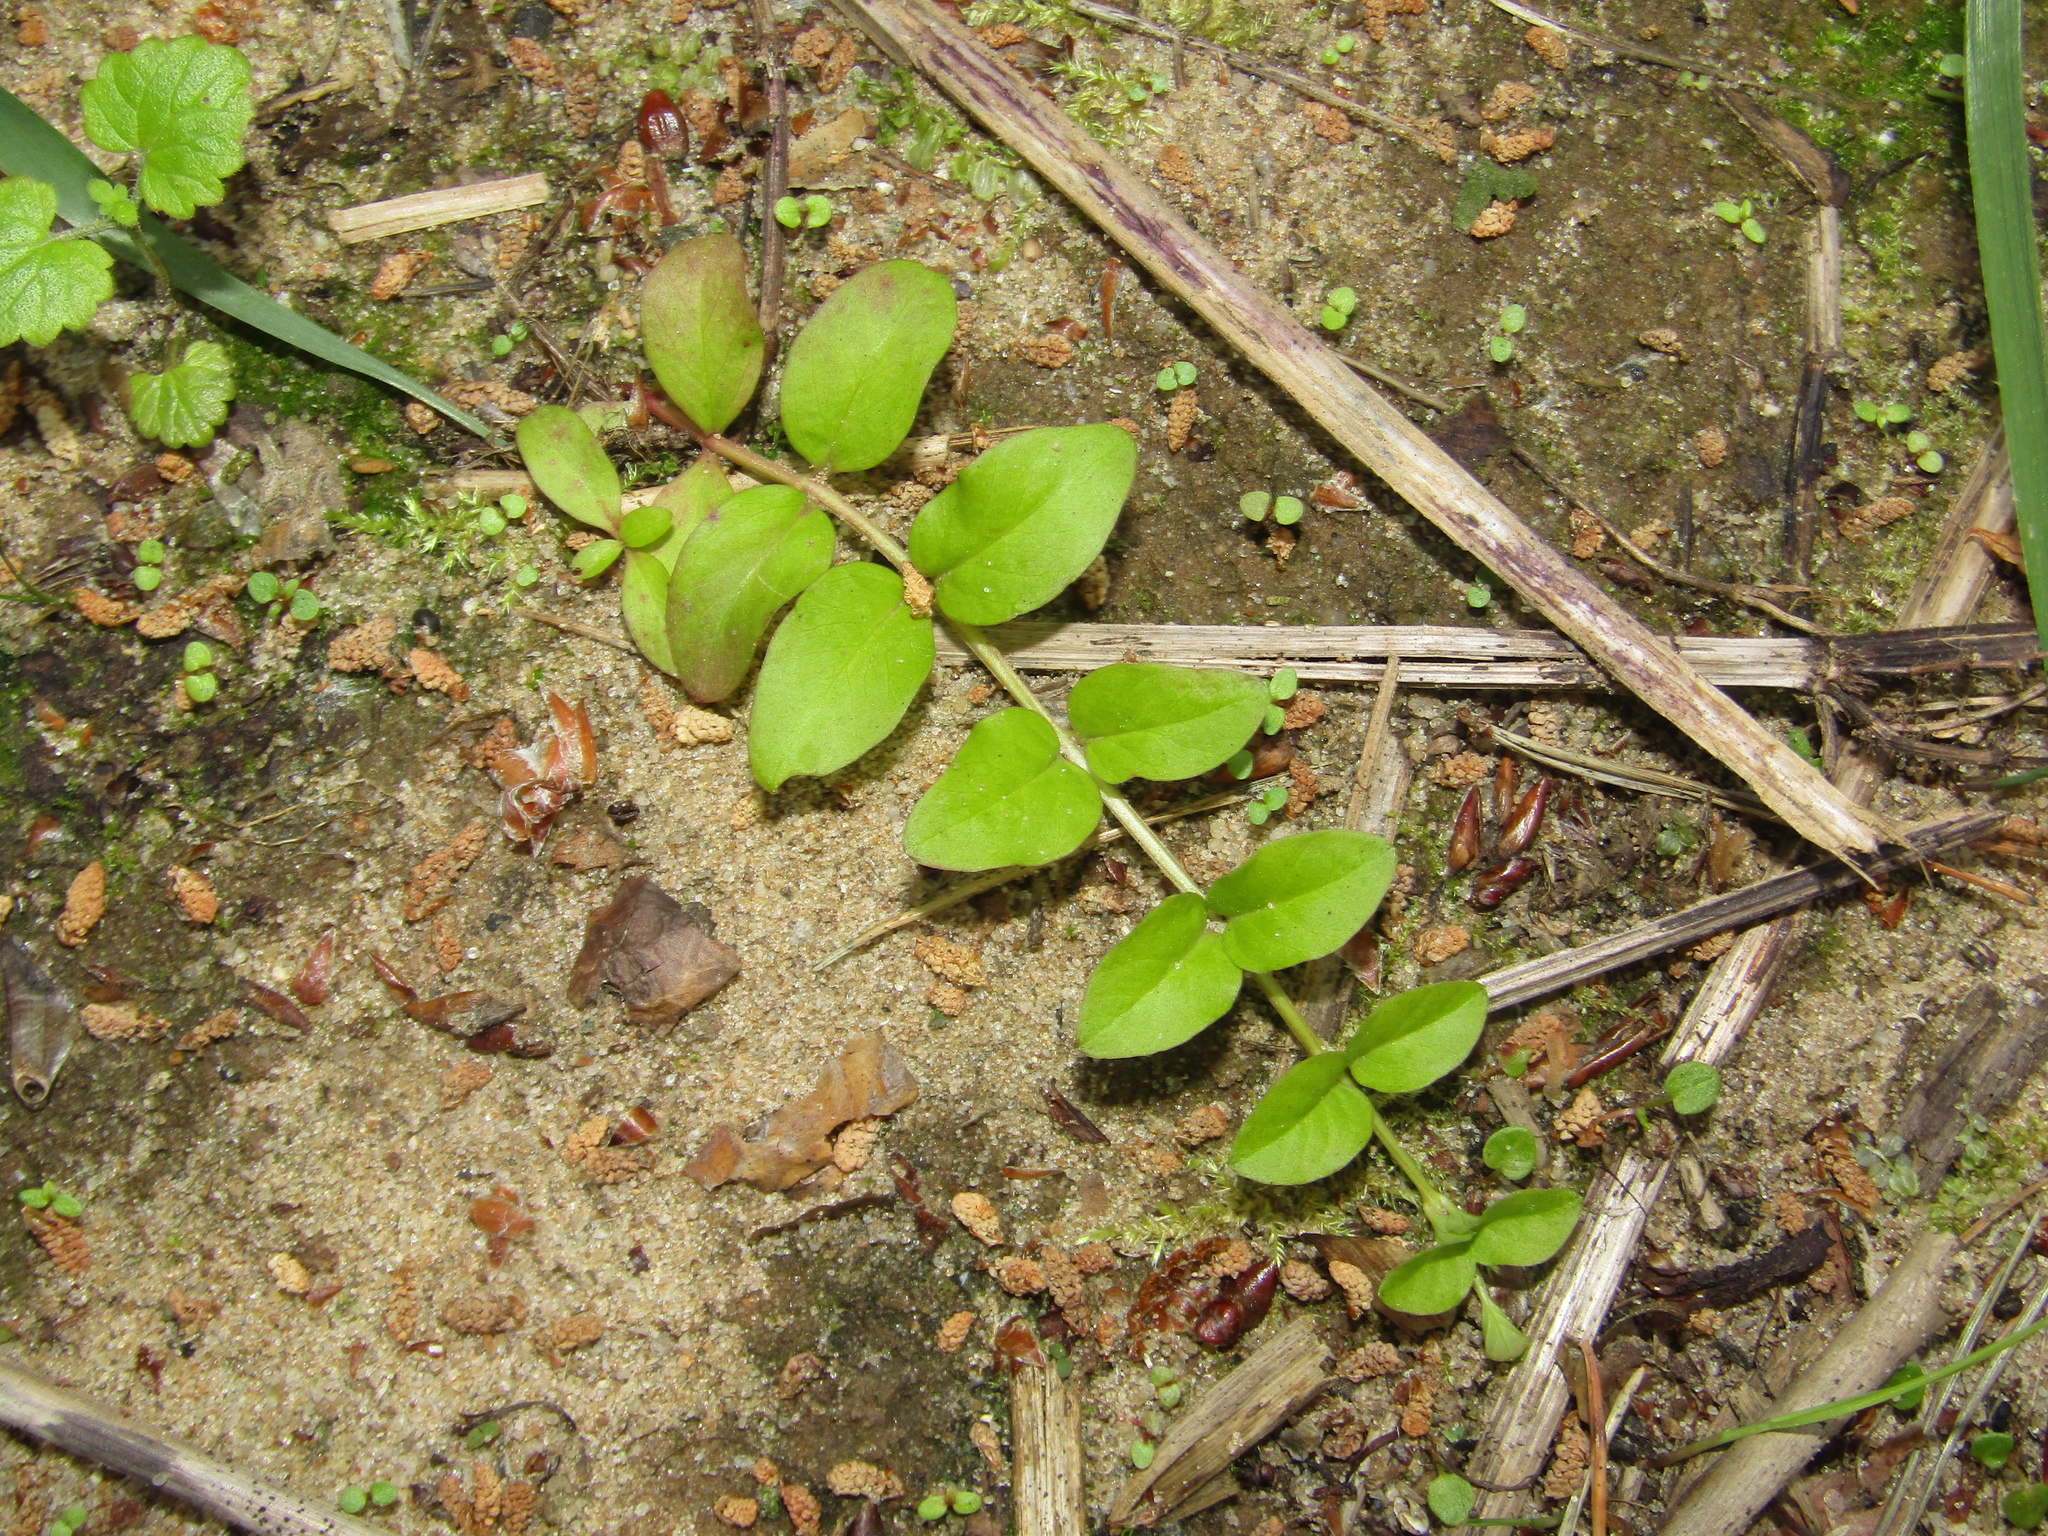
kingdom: Plantae
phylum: Tracheophyta
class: Magnoliopsida
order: Ericales
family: Primulaceae
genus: Lysimachia
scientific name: Lysimachia nummularia
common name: Moneywort
